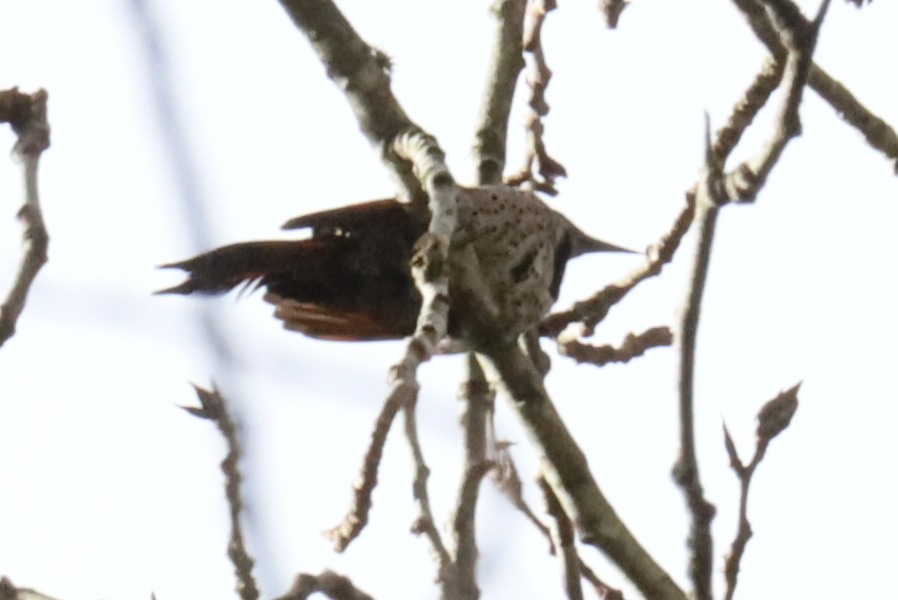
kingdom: Animalia
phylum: Chordata
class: Aves
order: Piciformes
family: Picidae
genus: Colaptes
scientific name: Colaptes auratus
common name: Northern flicker
